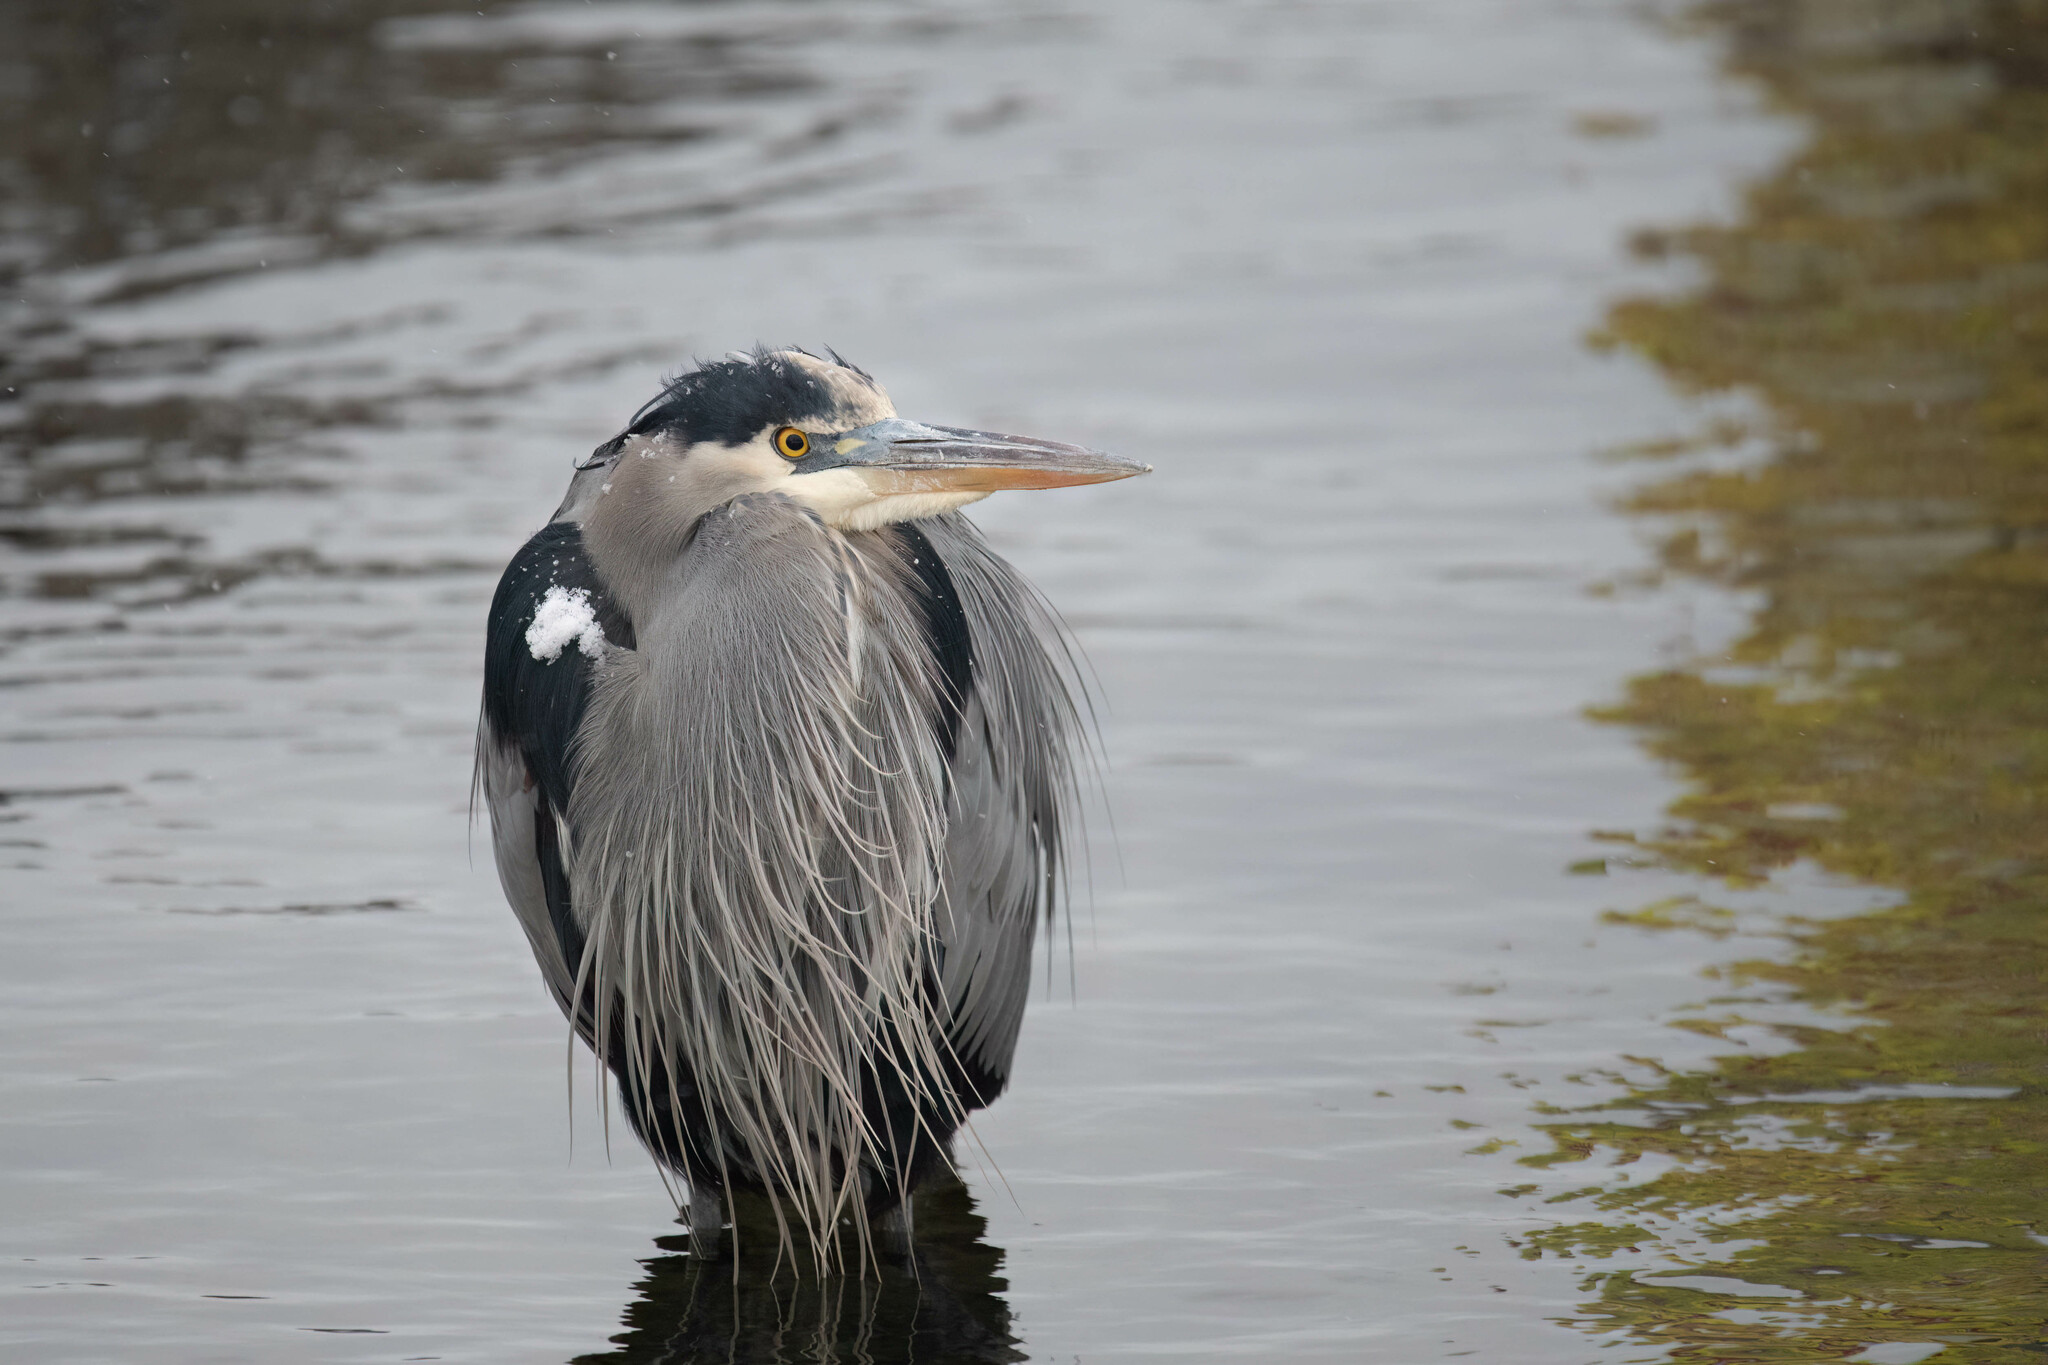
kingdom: Animalia
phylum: Chordata
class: Aves
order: Pelecaniformes
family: Ardeidae
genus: Ardea
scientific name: Ardea herodias
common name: Great blue heron
